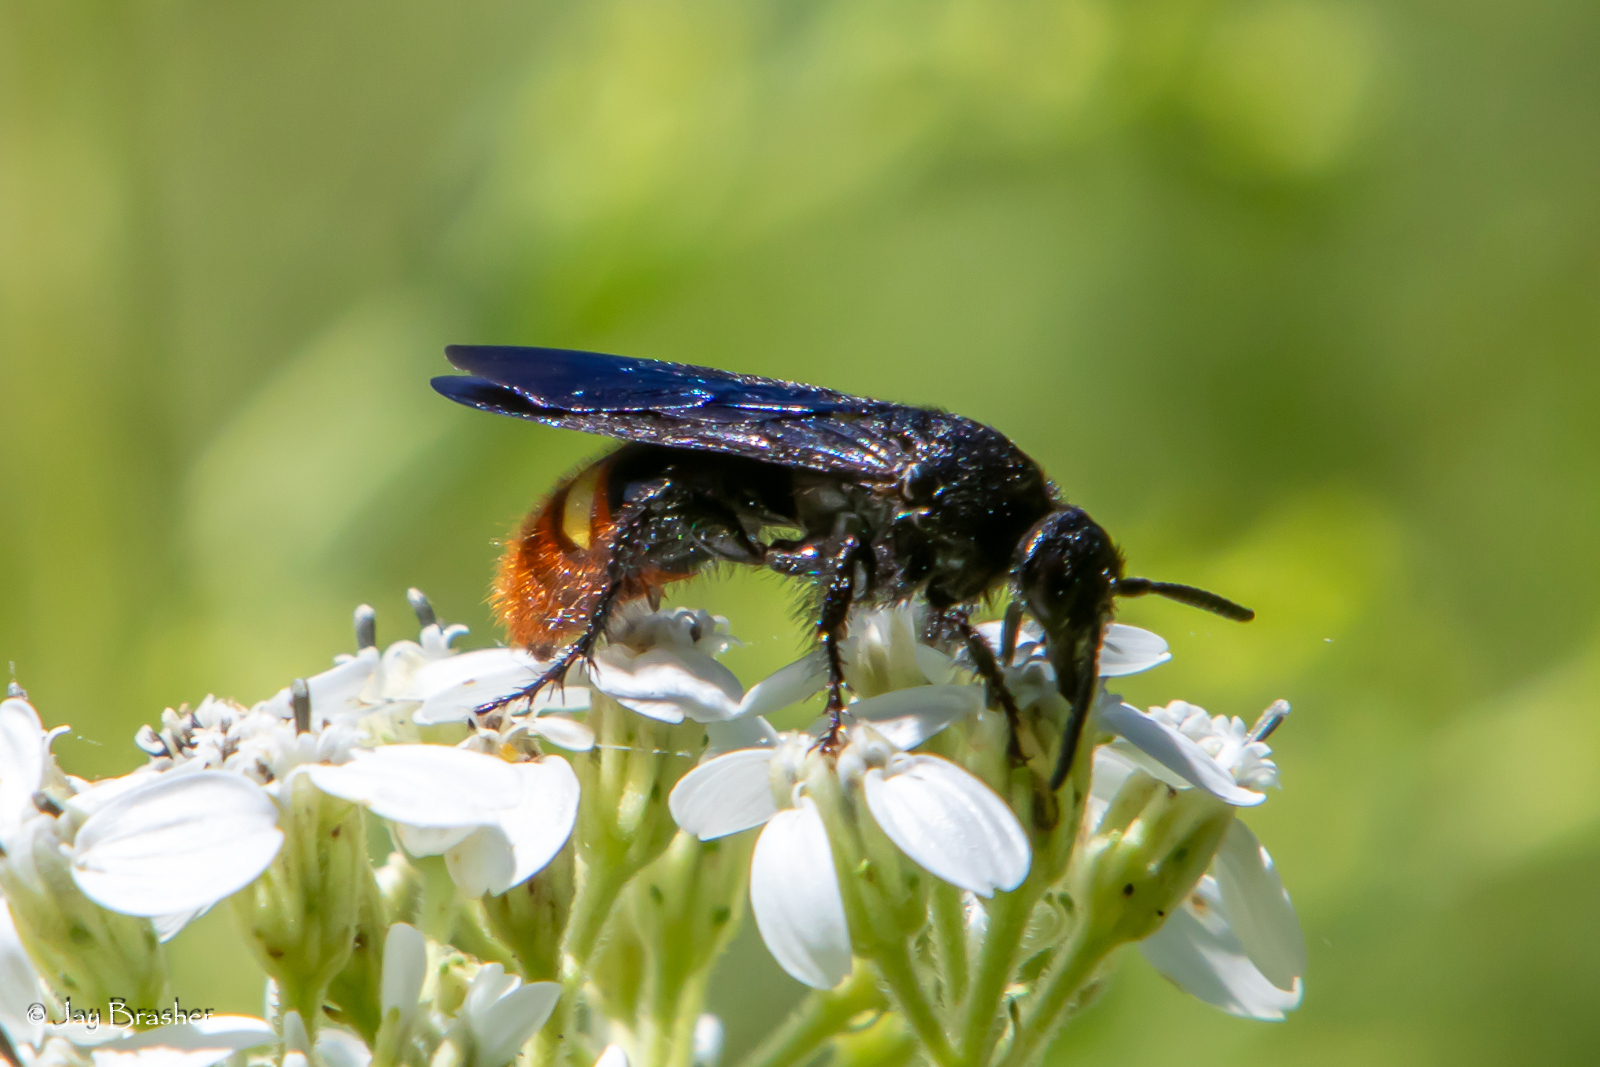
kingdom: Animalia
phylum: Arthropoda
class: Insecta
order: Hymenoptera
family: Scoliidae
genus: Scolia
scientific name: Scolia dubia
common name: Blue-winged scoliid wasp
